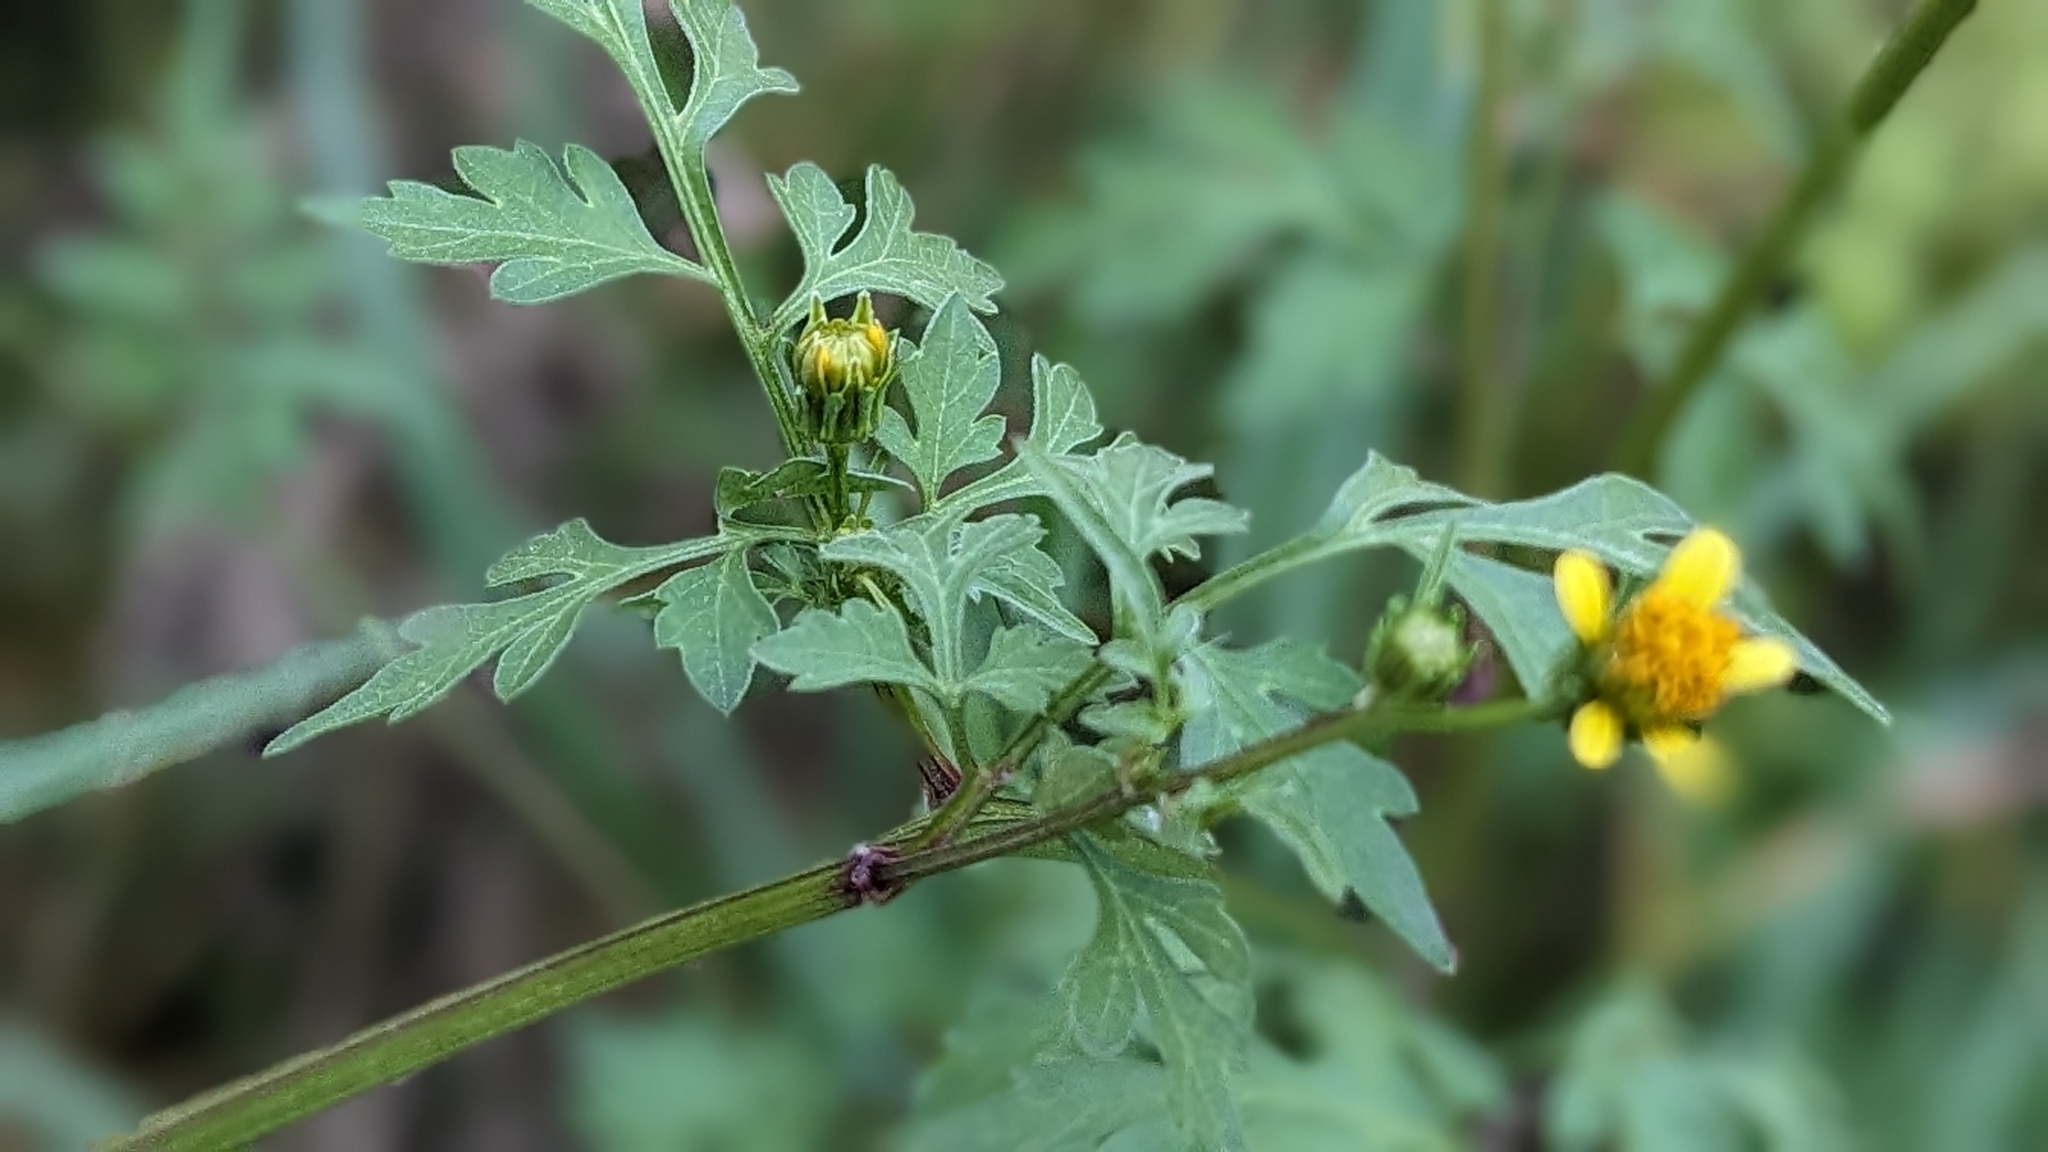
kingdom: Plantae
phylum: Tracheophyta
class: Magnoliopsida
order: Asterales
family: Asteraceae
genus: Bidens
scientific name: Bidens bipinnata
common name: Spanish-needles
